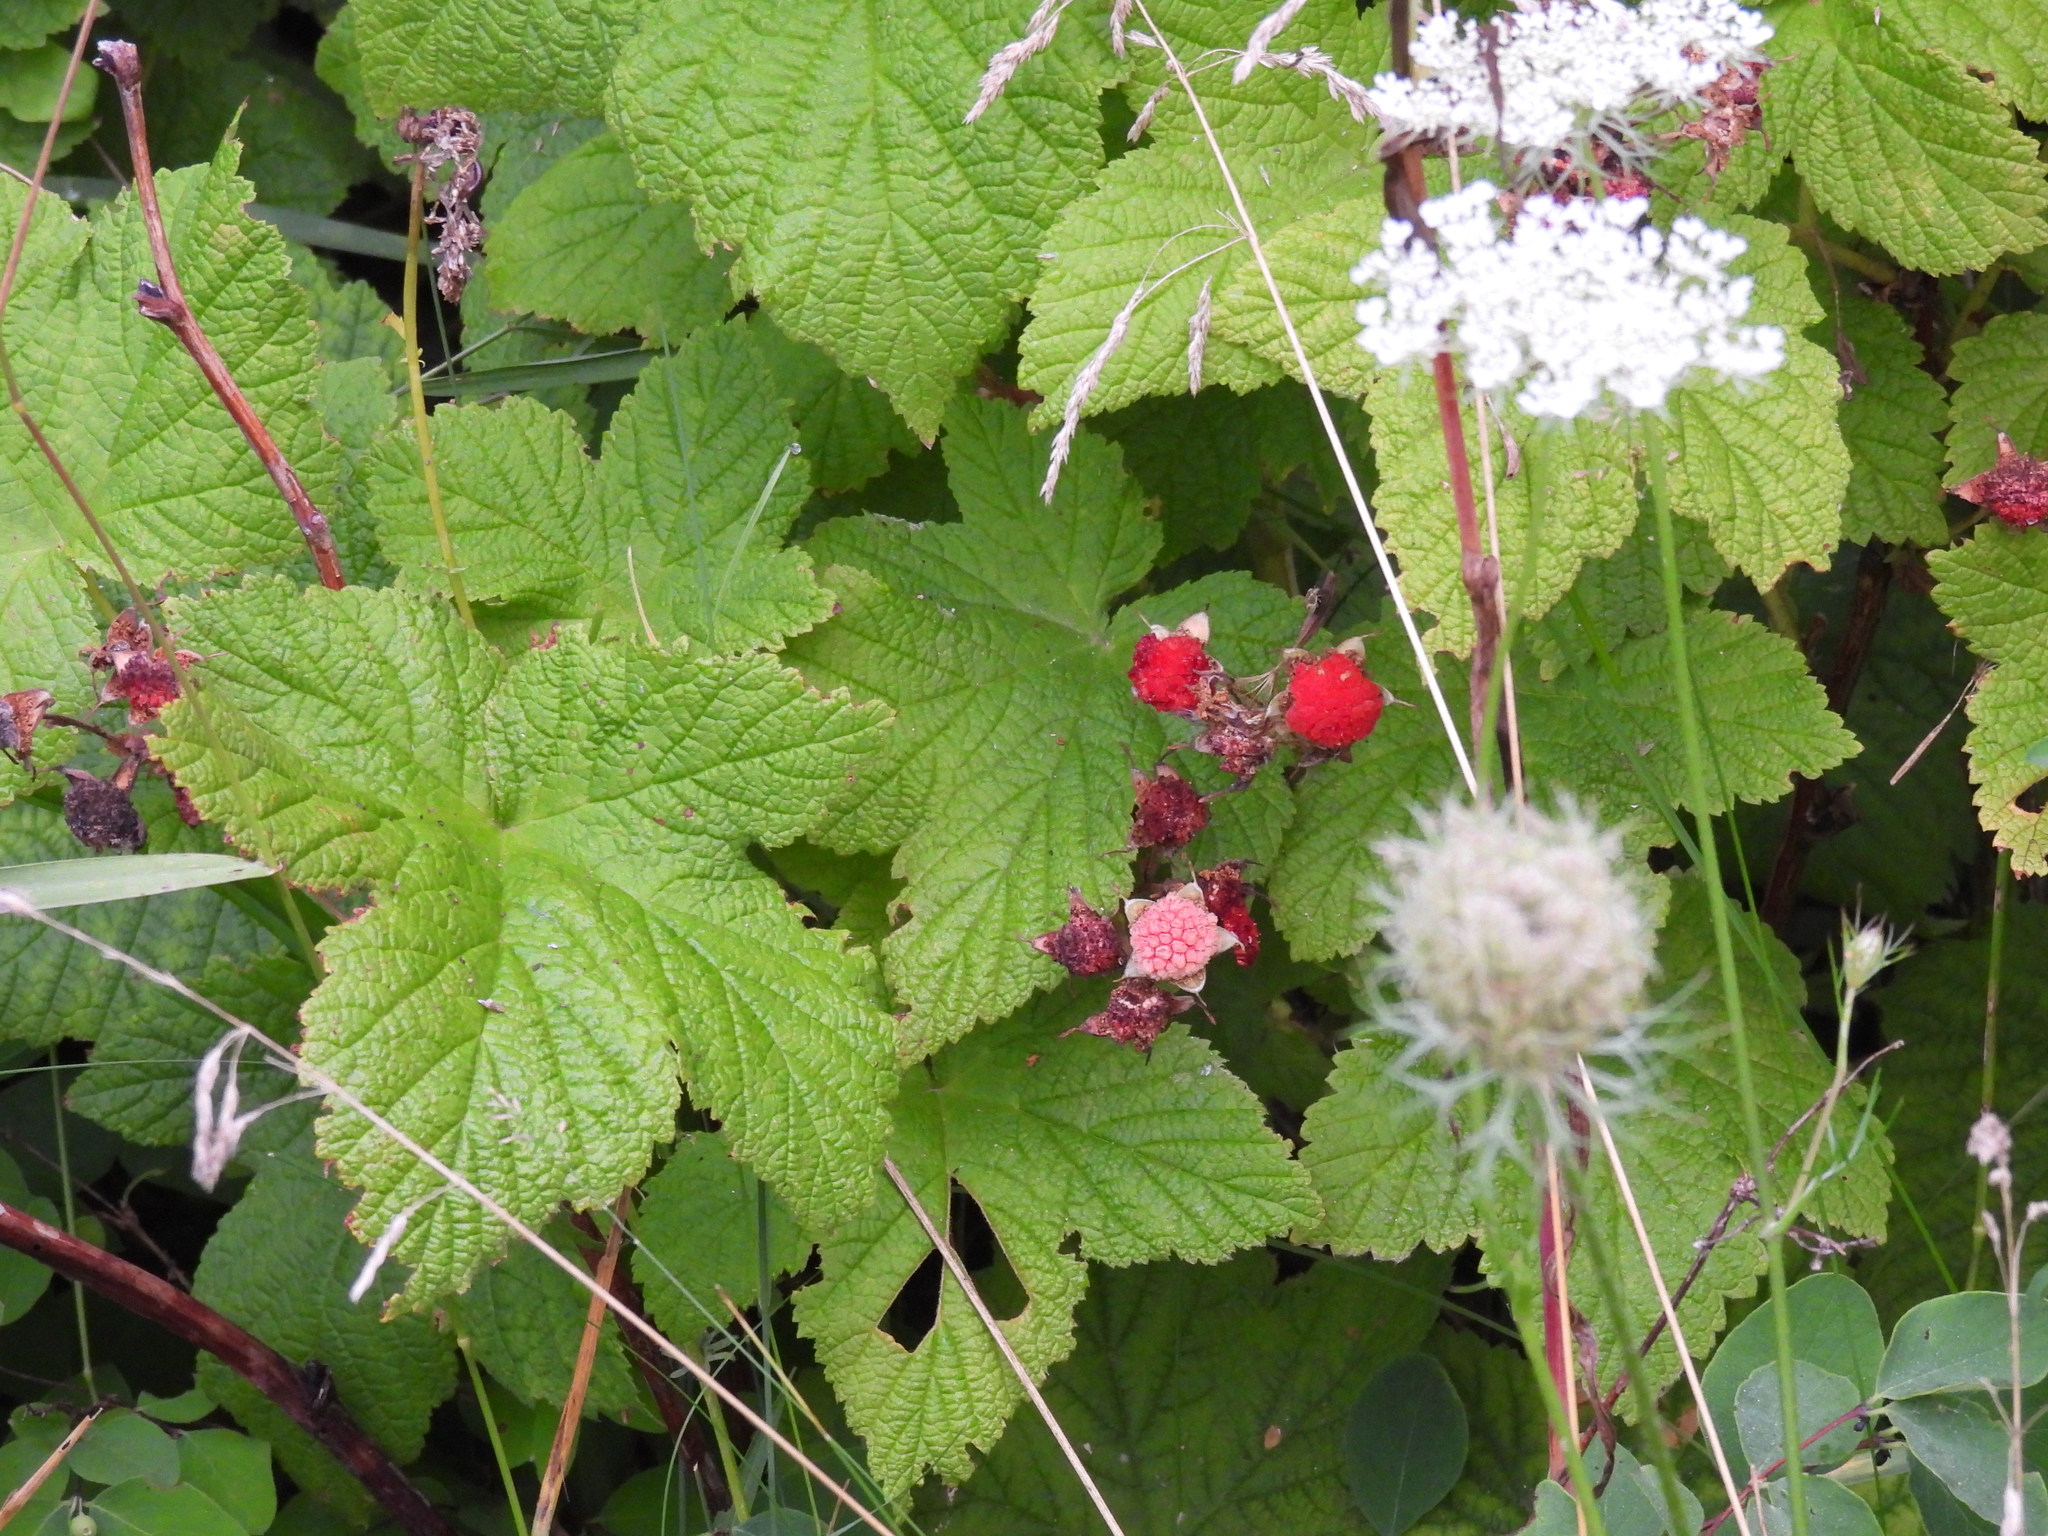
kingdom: Plantae
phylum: Tracheophyta
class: Magnoliopsida
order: Rosales
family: Rosaceae
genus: Rubus
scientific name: Rubus parviflorus
